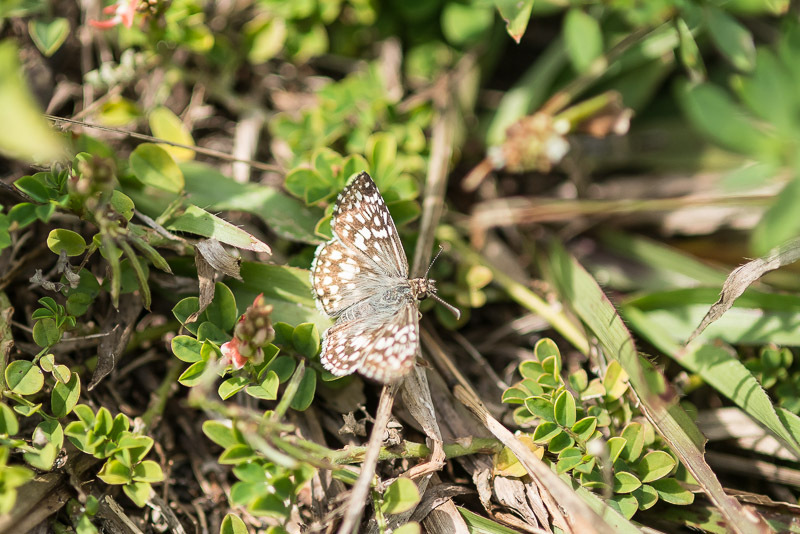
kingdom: Animalia
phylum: Arthropoda
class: Insecta
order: Lepidoptera
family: Hesperiidae
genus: Pyrgus
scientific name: Pyrgus oileus
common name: Tropical checkered-skipper
